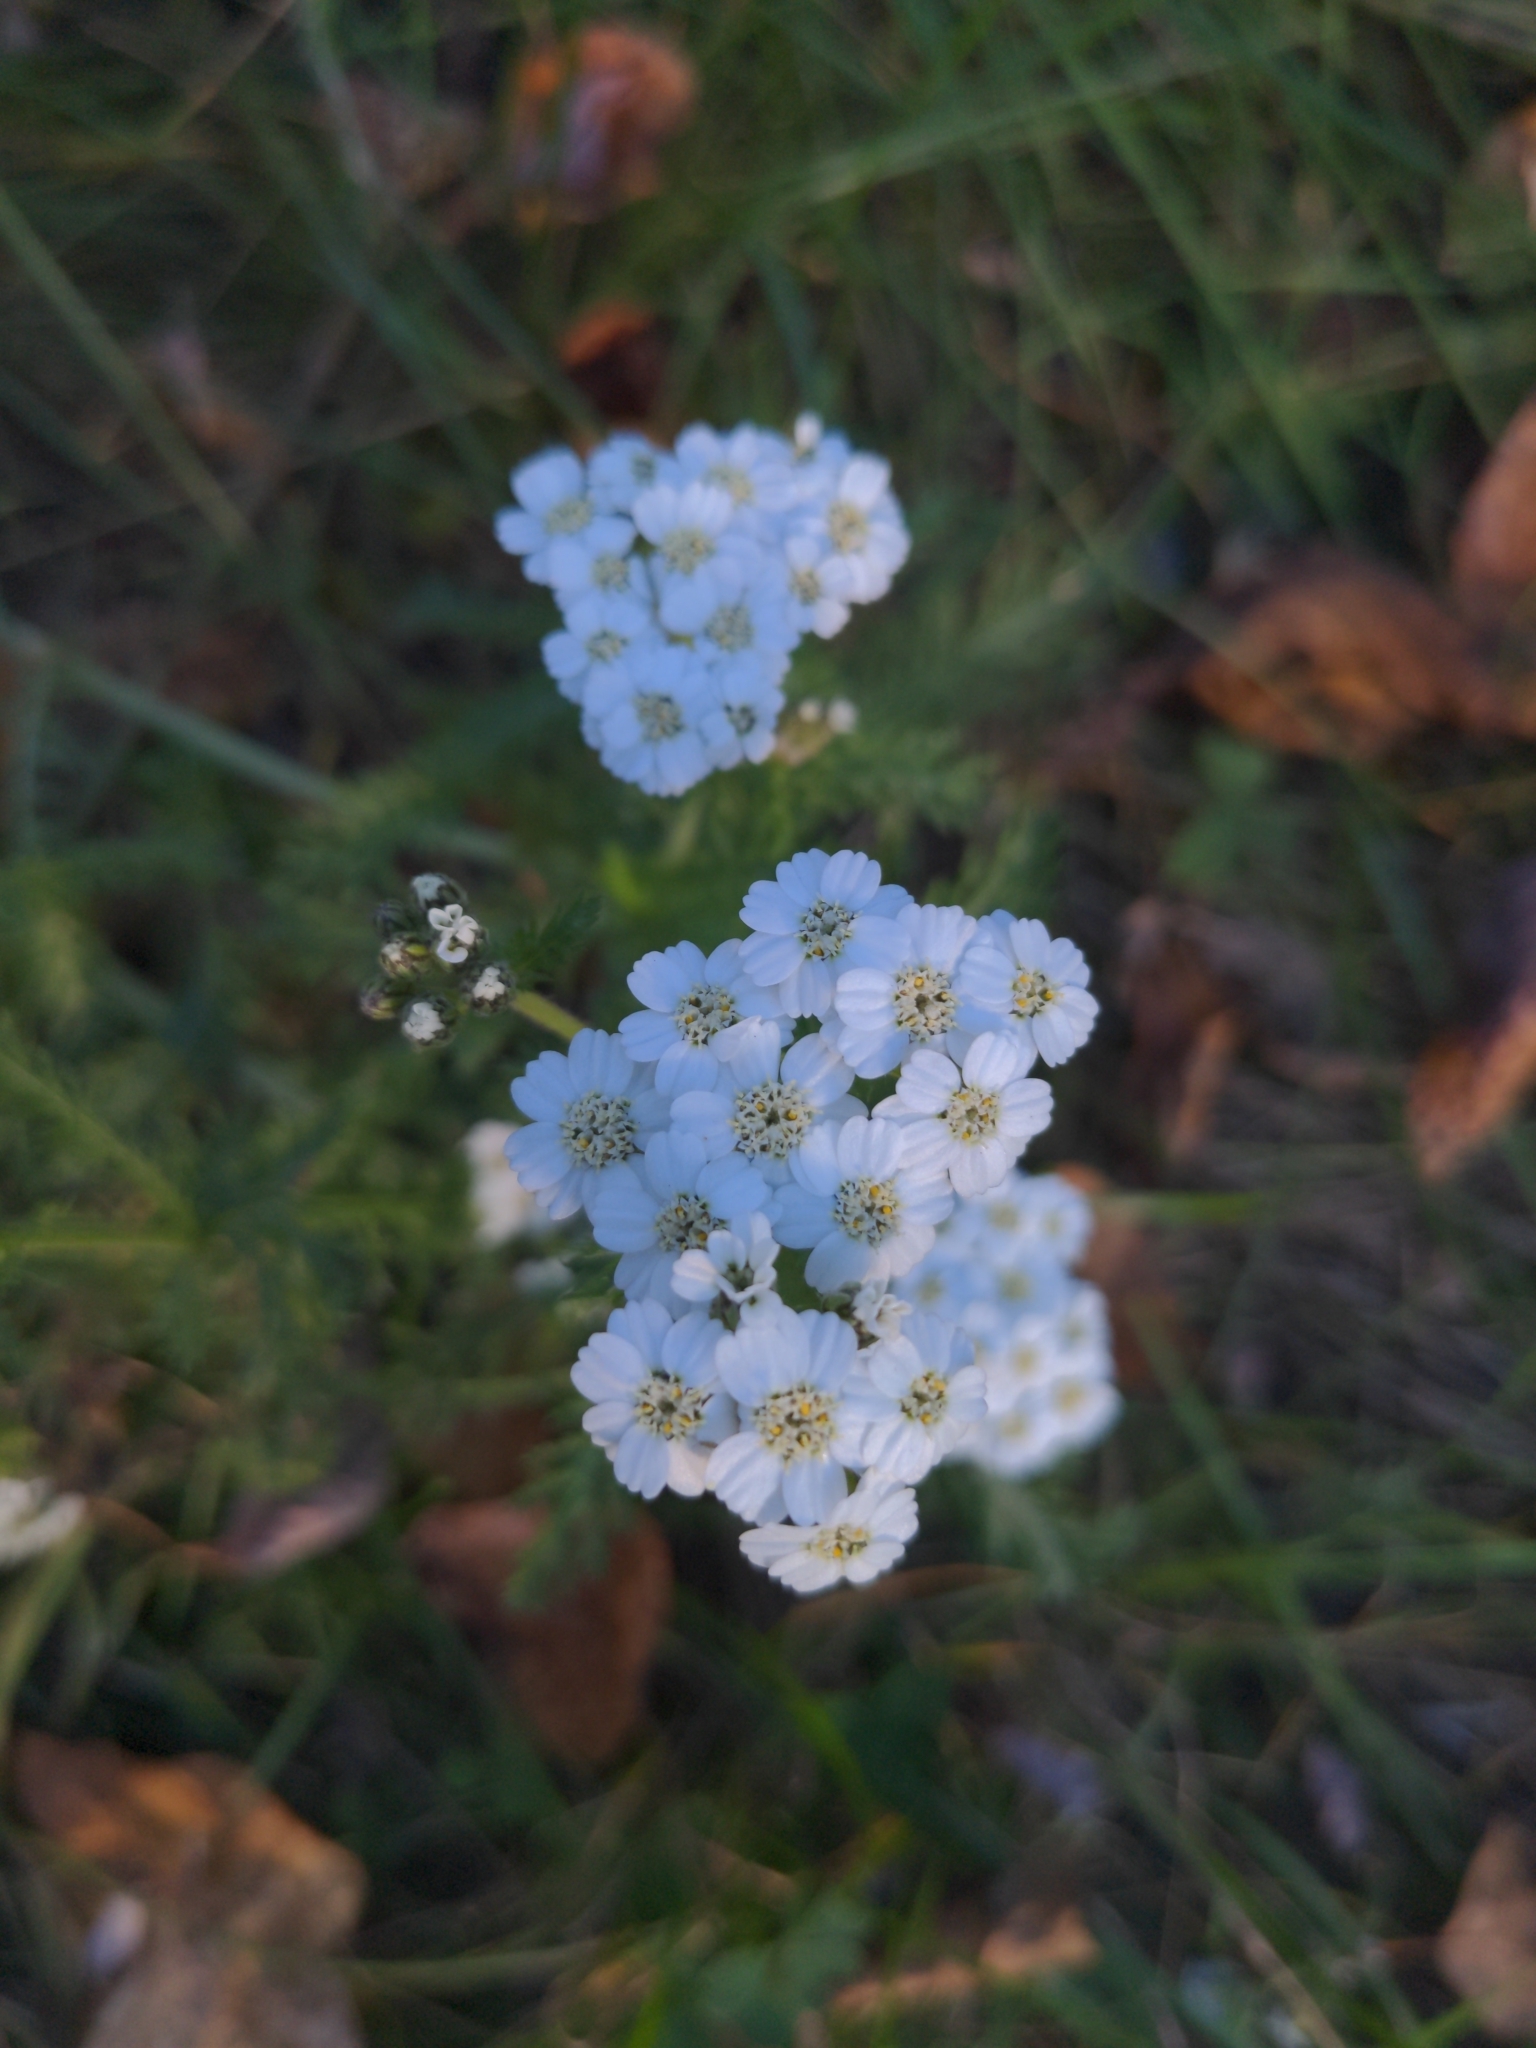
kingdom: Plantae
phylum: Tracheophyta
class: Magnoliopsida
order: Asterales
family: Asteraceae
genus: Achillea
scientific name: Achillea millefolium
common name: Yarrow
